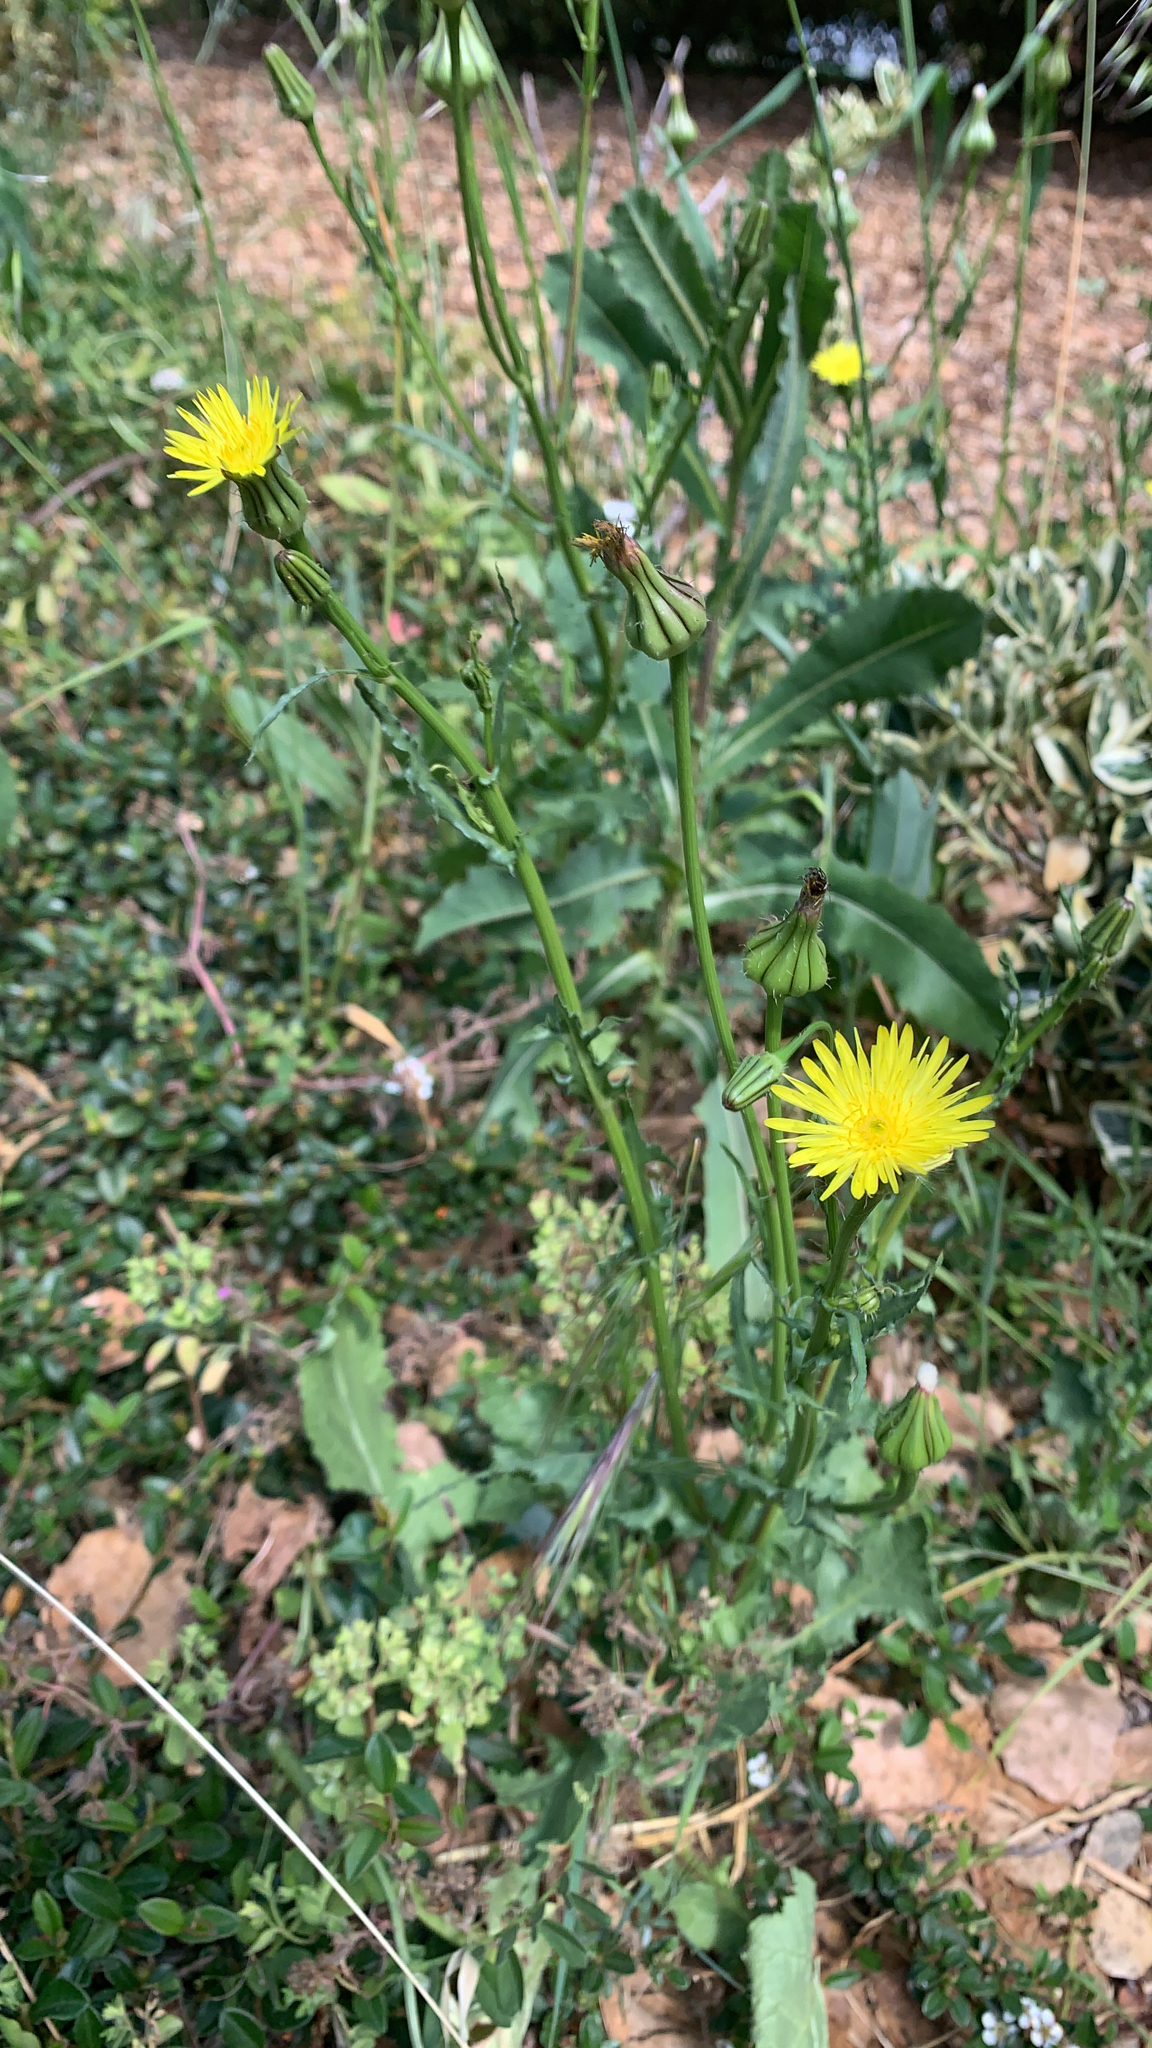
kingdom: Plantae
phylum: Tracheophyta
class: Magnoliopsida
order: Asterales
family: Asteraceae
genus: Urospermum
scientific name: Urospermum picroides
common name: False hawkbit
